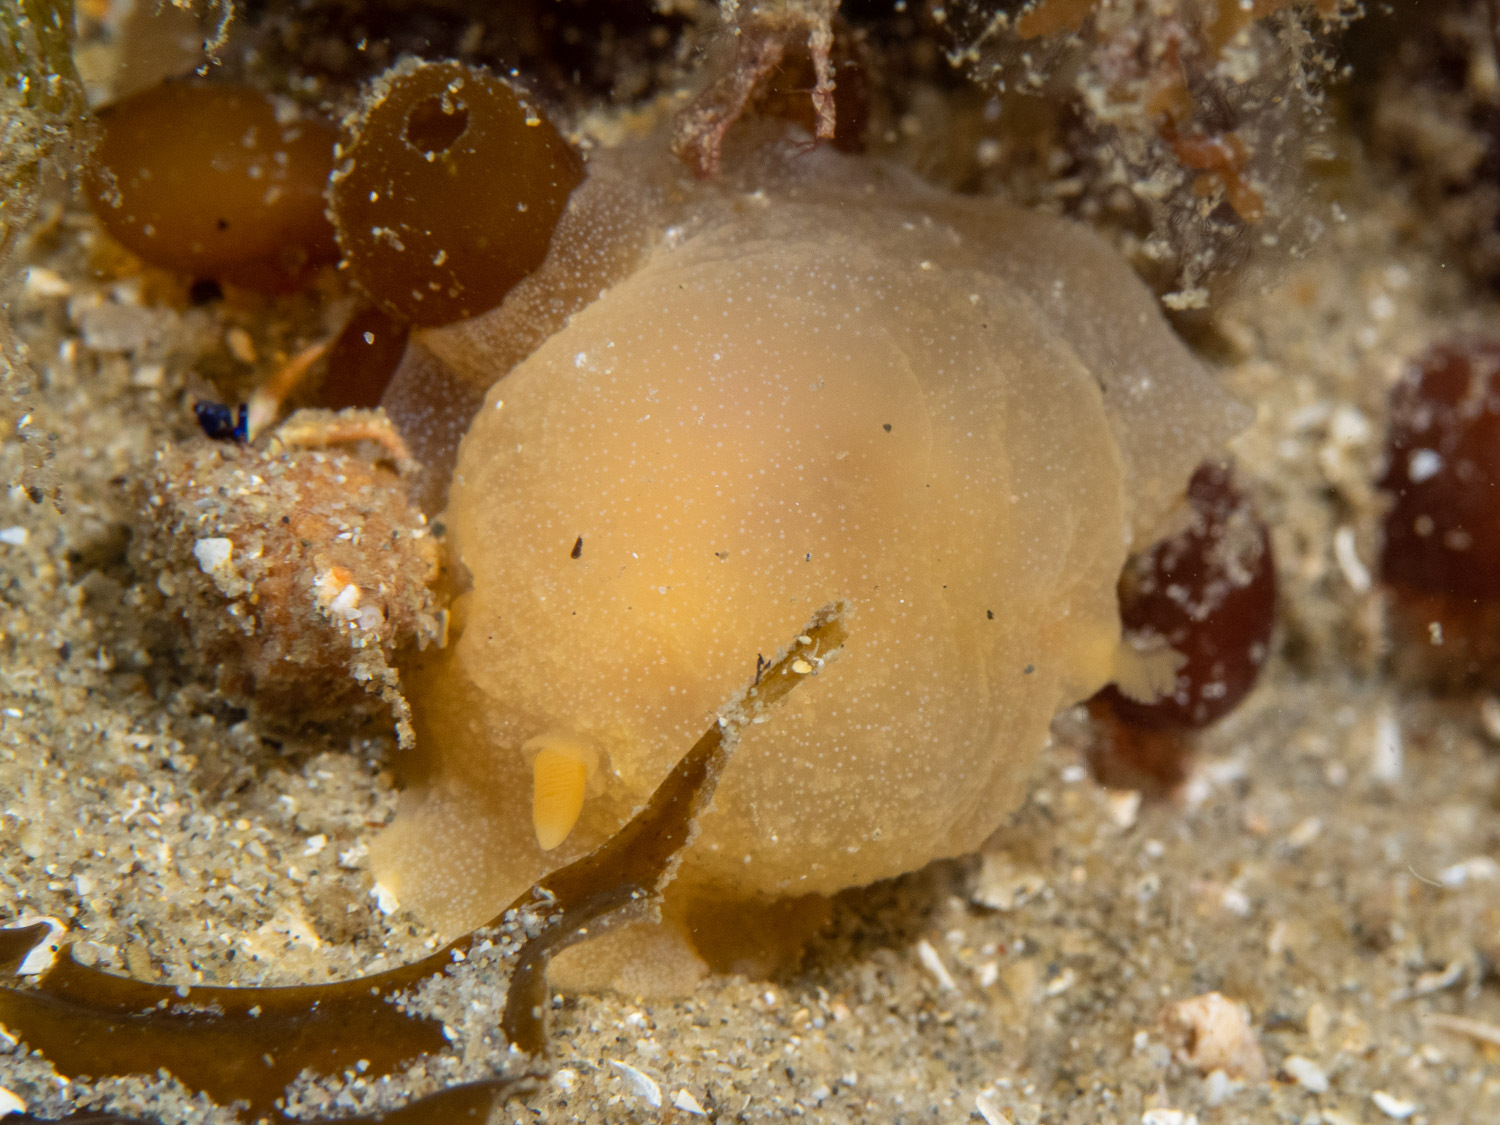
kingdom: Animalia
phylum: Mollusca
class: Gastropoda
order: Nudibranchia
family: Dendrodorididae
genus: Doriopsilla
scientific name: Doriopsilla carneola
